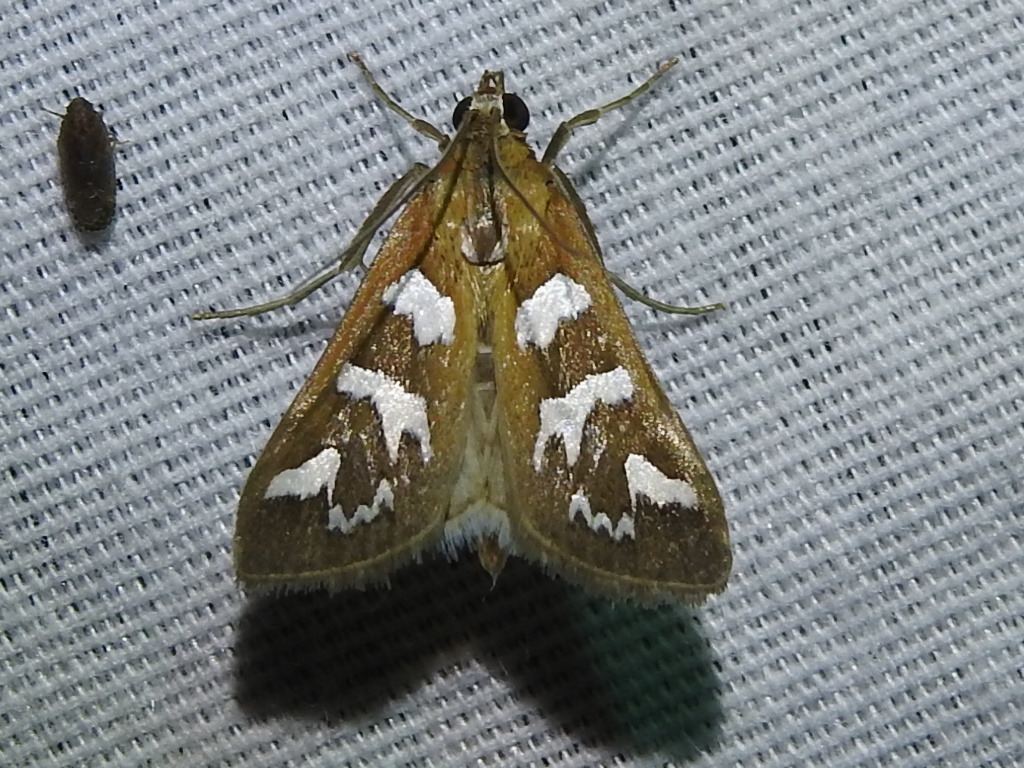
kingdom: Animalia
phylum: Arthropoda
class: Insecta
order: Lepidoptera
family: Crambidae
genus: Diastictis
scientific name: Diastictis fracturalis
